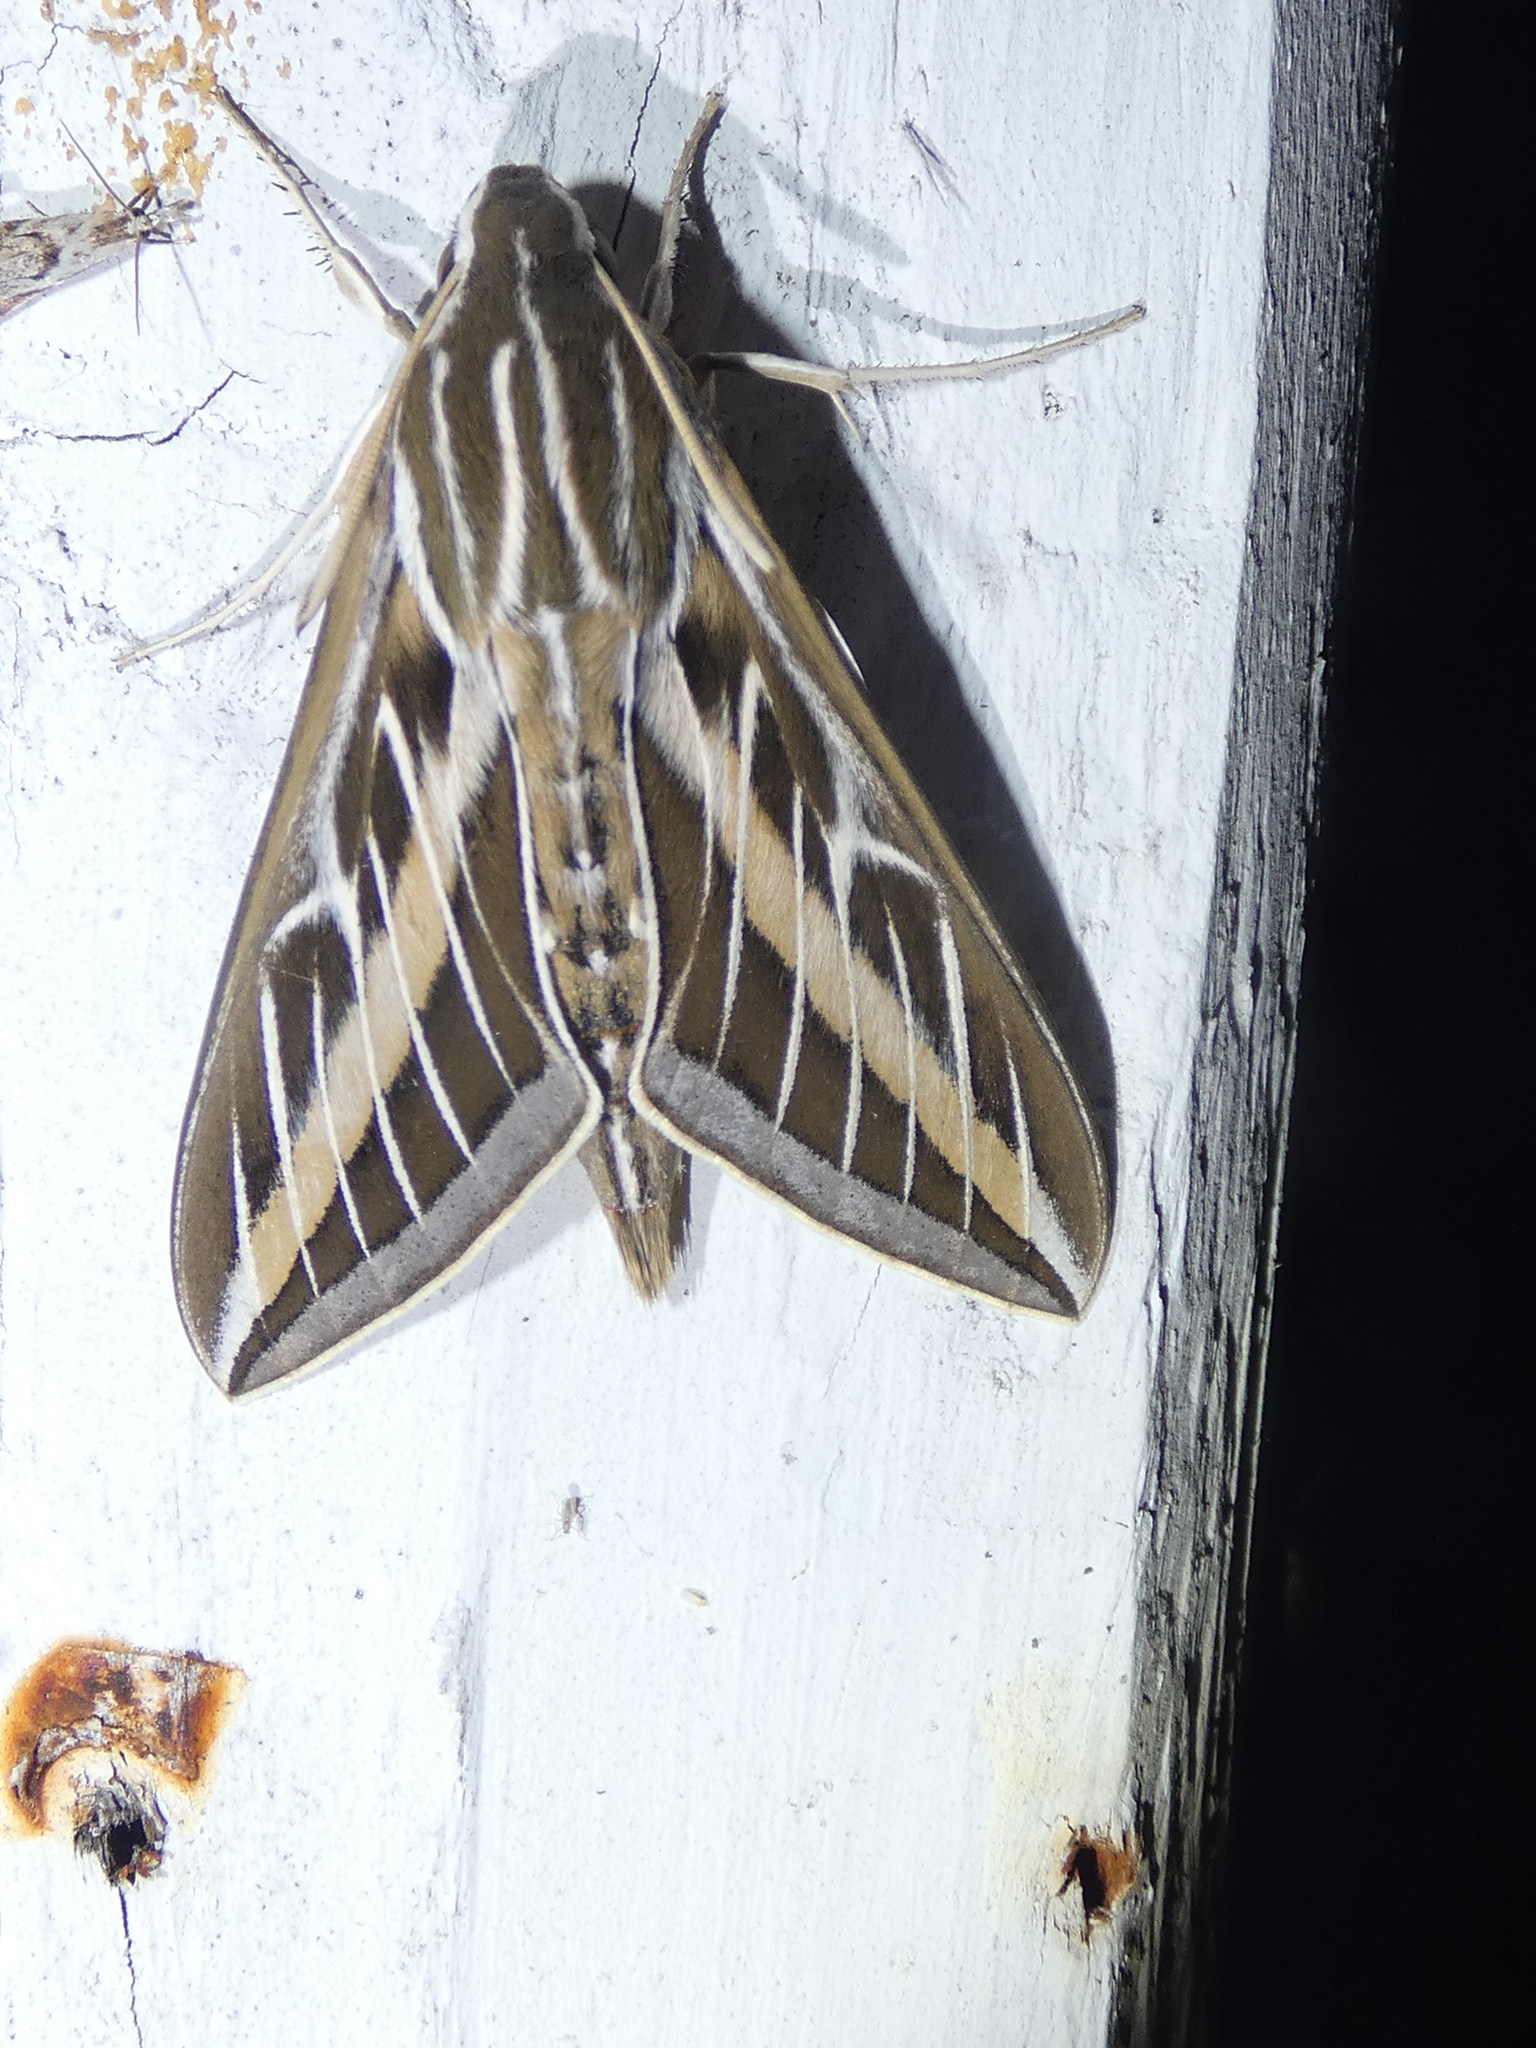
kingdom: Animalia
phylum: Arthropoda
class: Insecta
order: Lepidoptera
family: Sphingidae
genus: Hyles
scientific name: Hyles lineata
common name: White-lined sphinx
